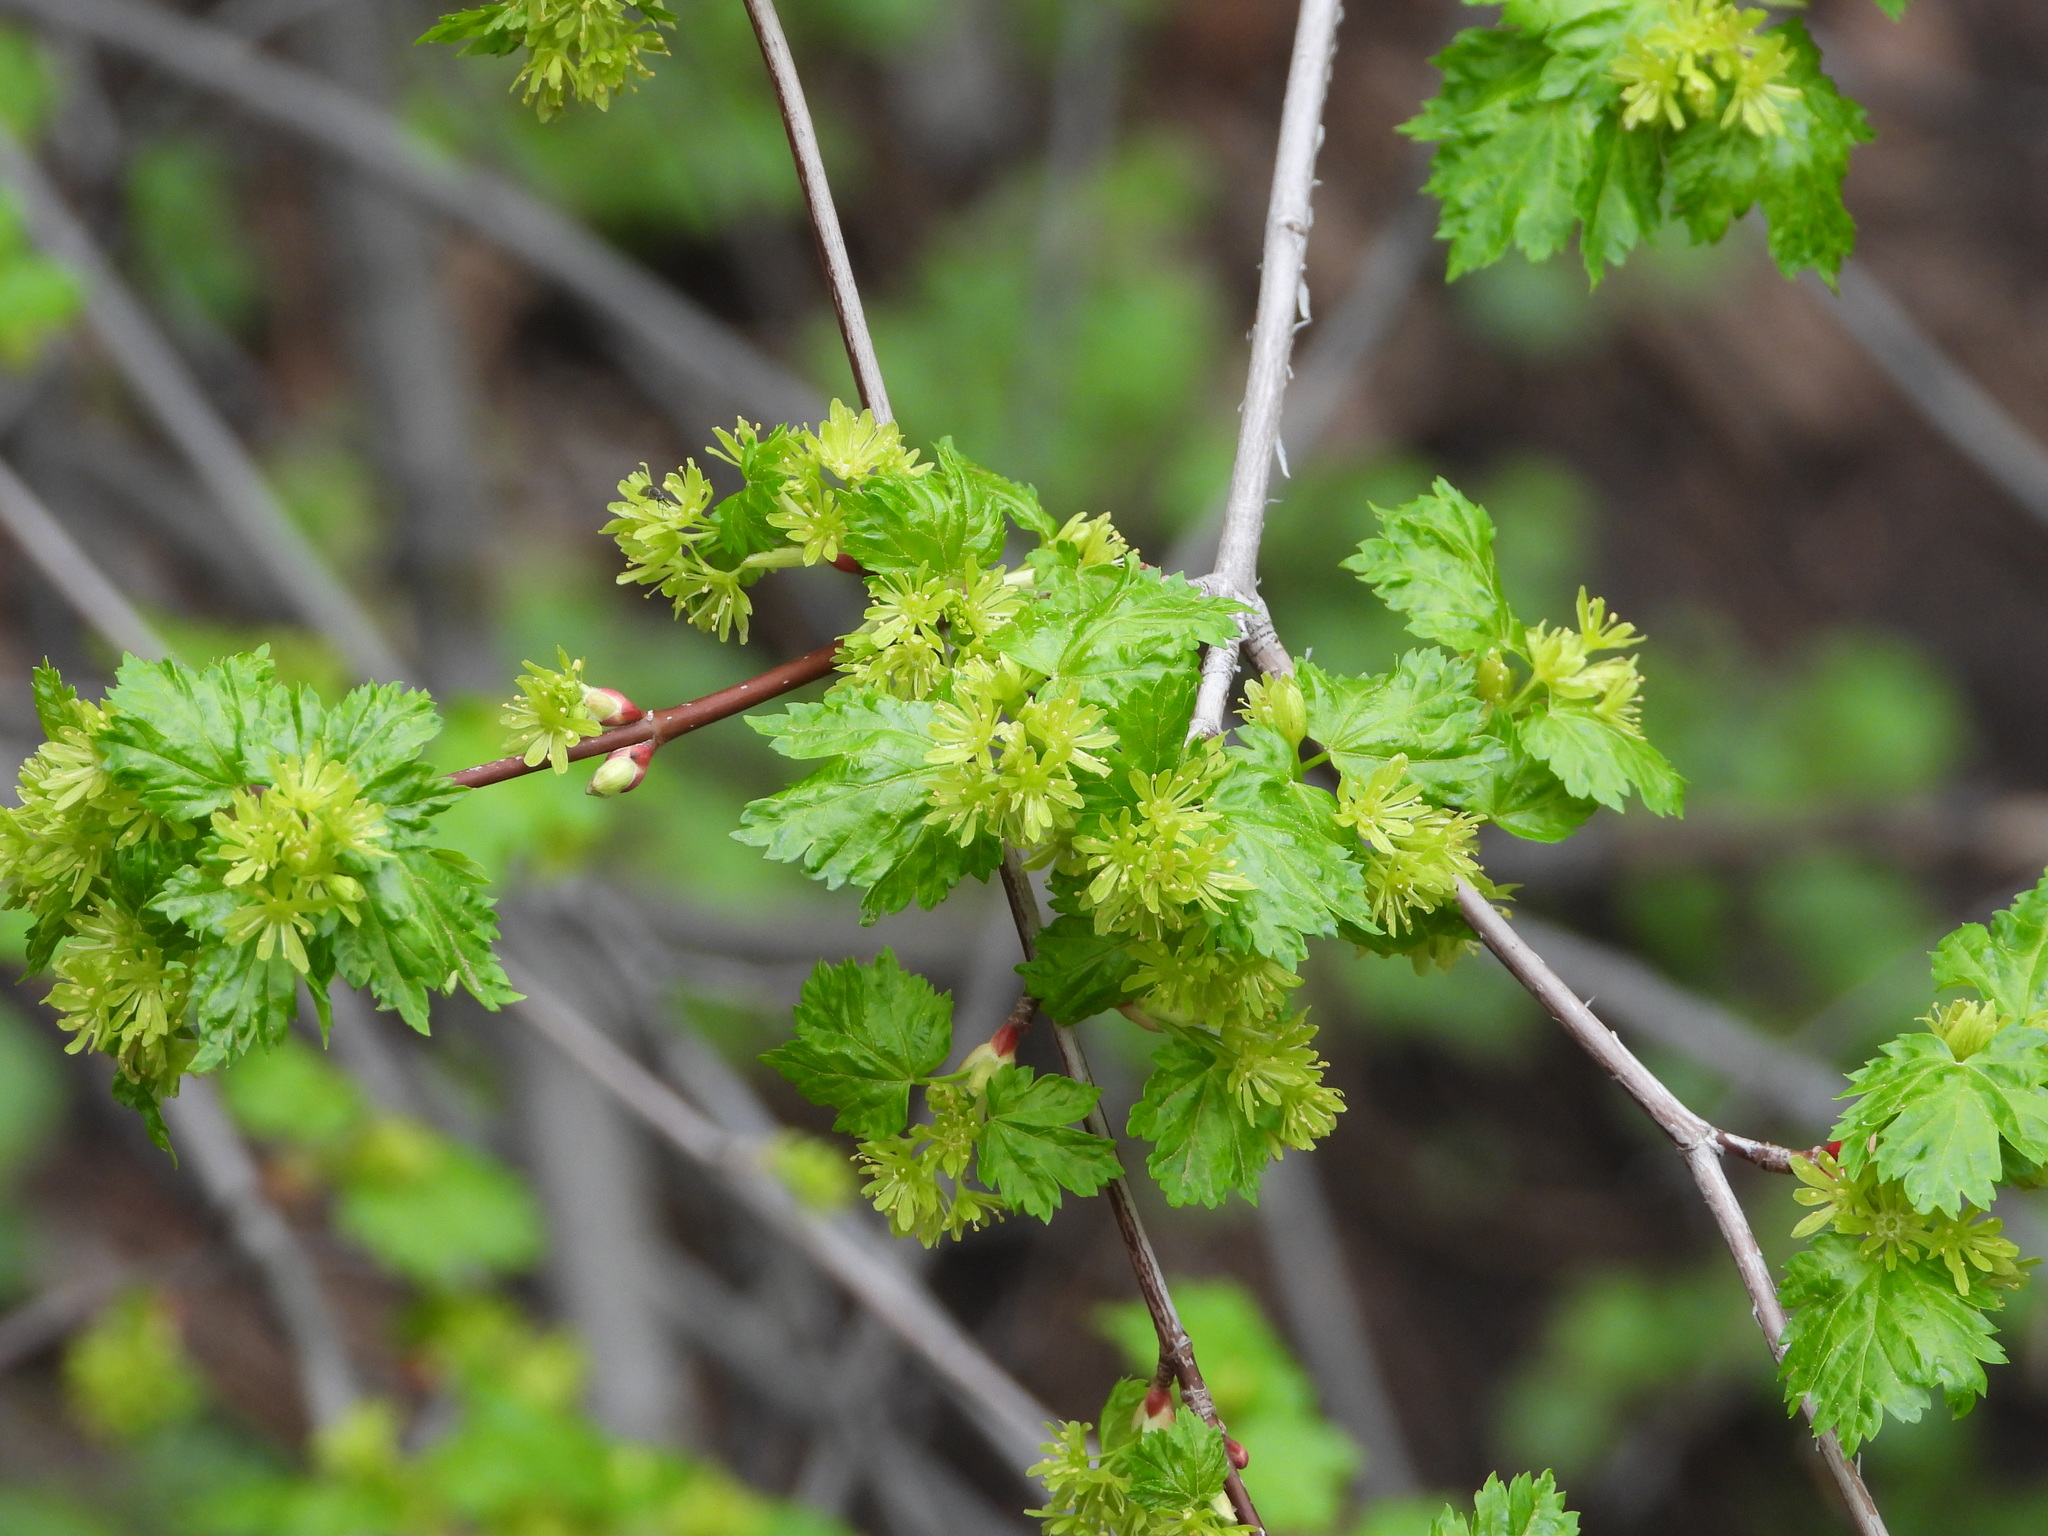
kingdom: Plantae
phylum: Tracheophyta
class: Magnoliopsida
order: Sapindales
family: Sapindaceae
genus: Acer
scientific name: Acer glabrum
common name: Rocky mountain maple
